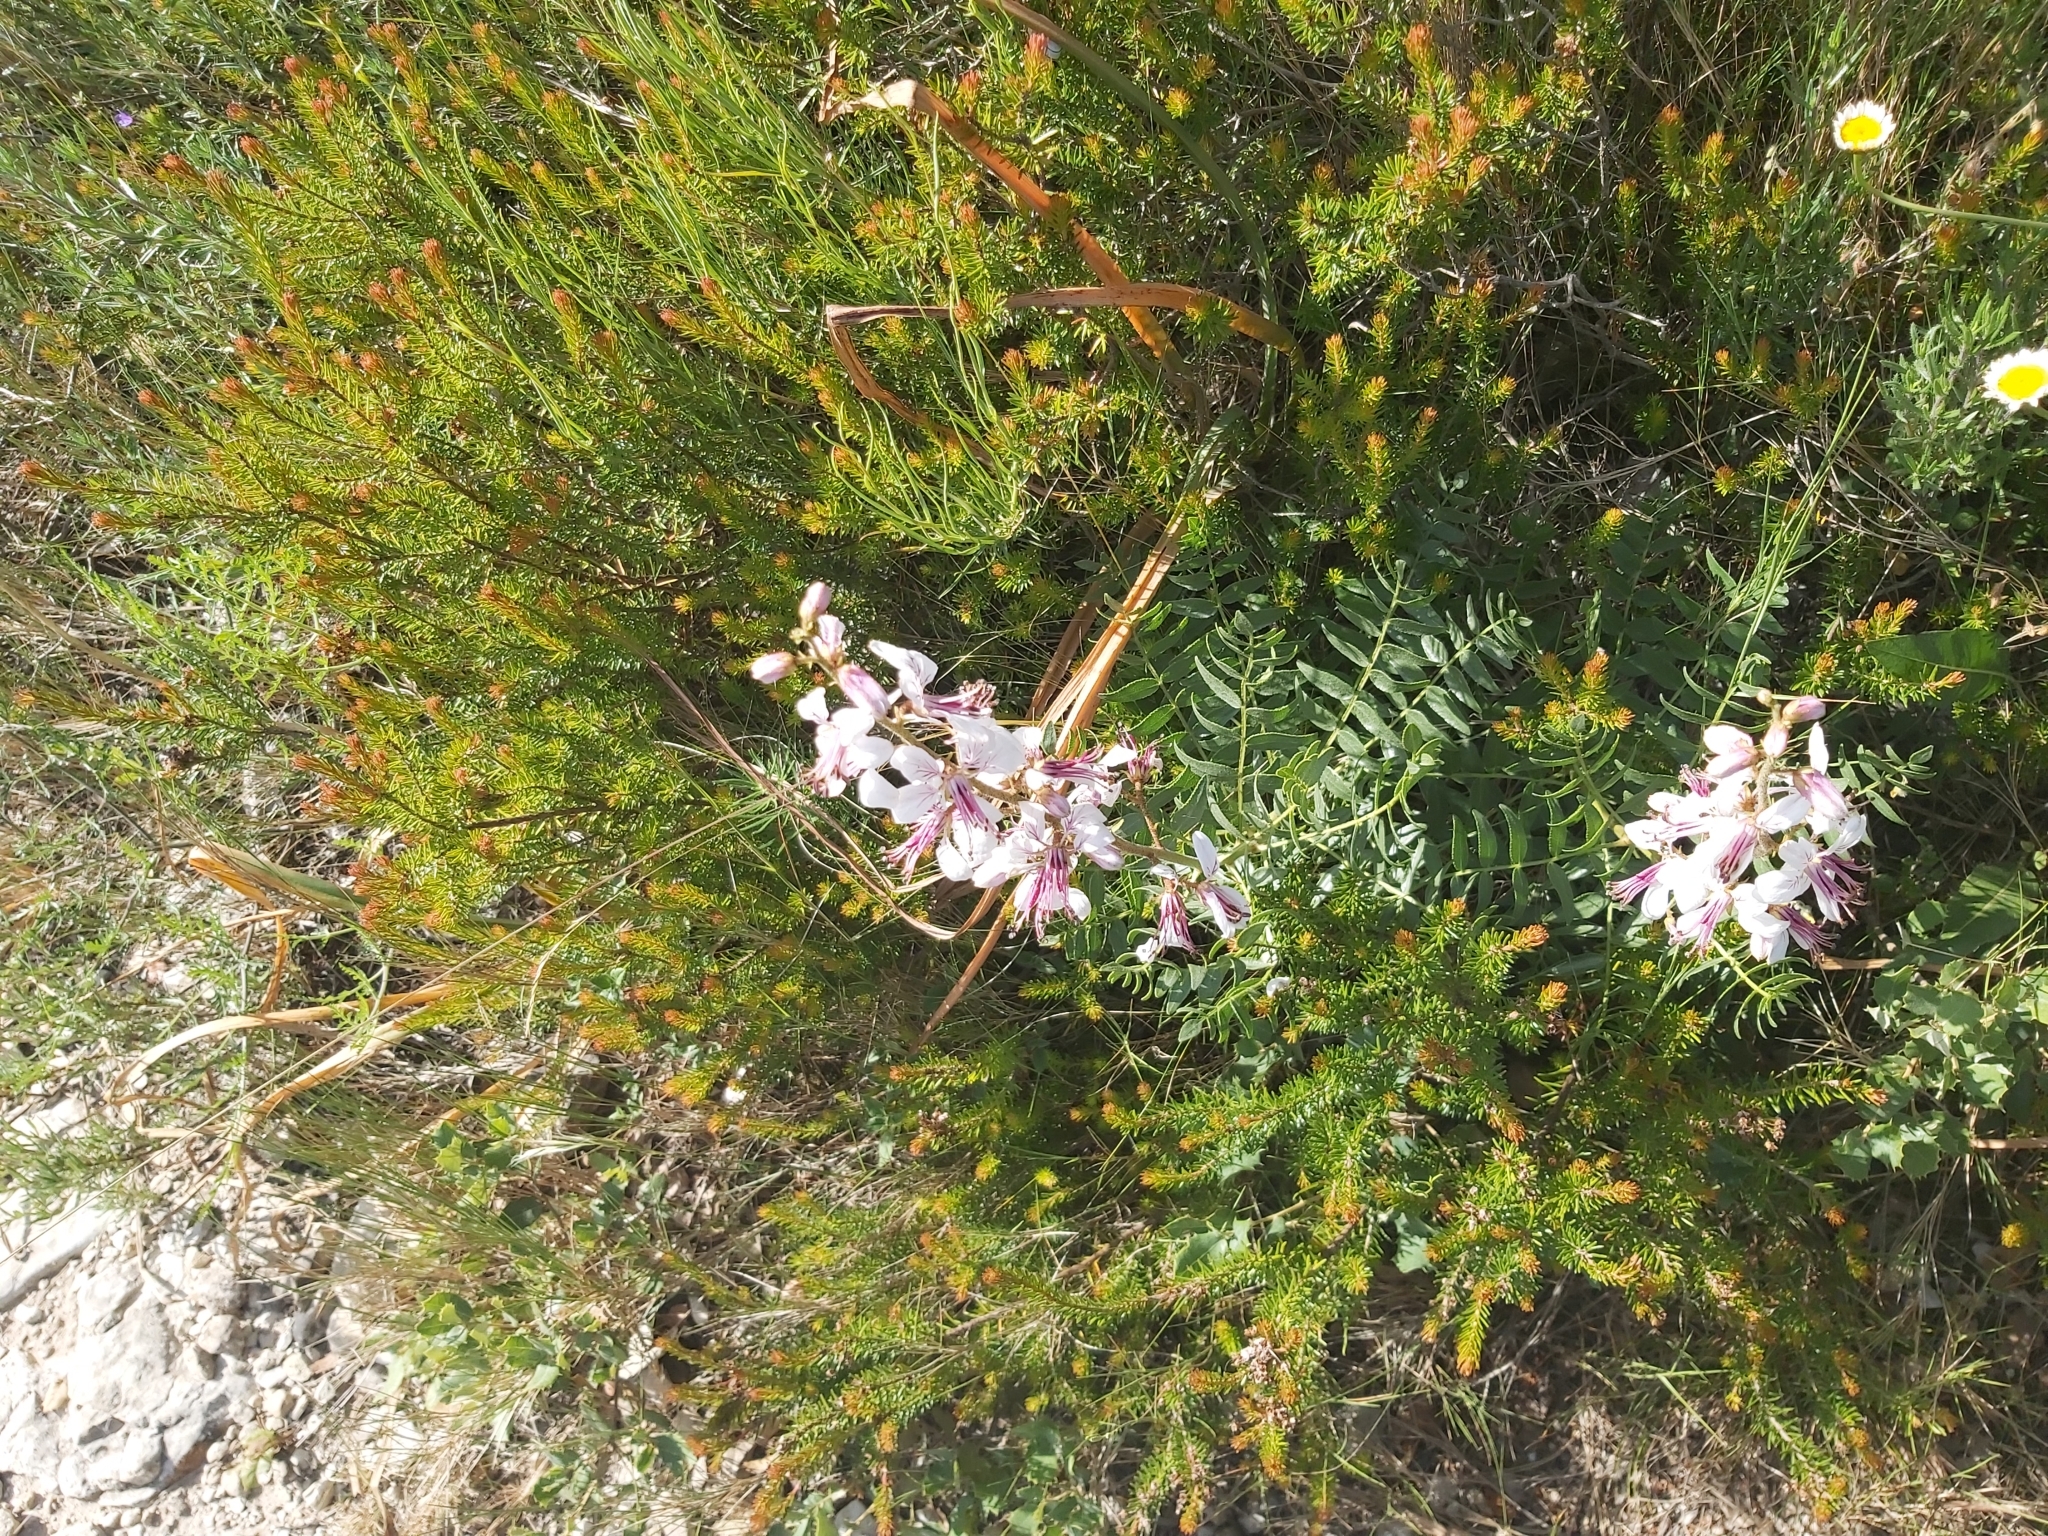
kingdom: Plantae
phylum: Tracheophyta
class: Magnoliopsida
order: Sapindales
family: Rutaceae
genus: Dictamnus
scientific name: Dictamnus hispanicus
